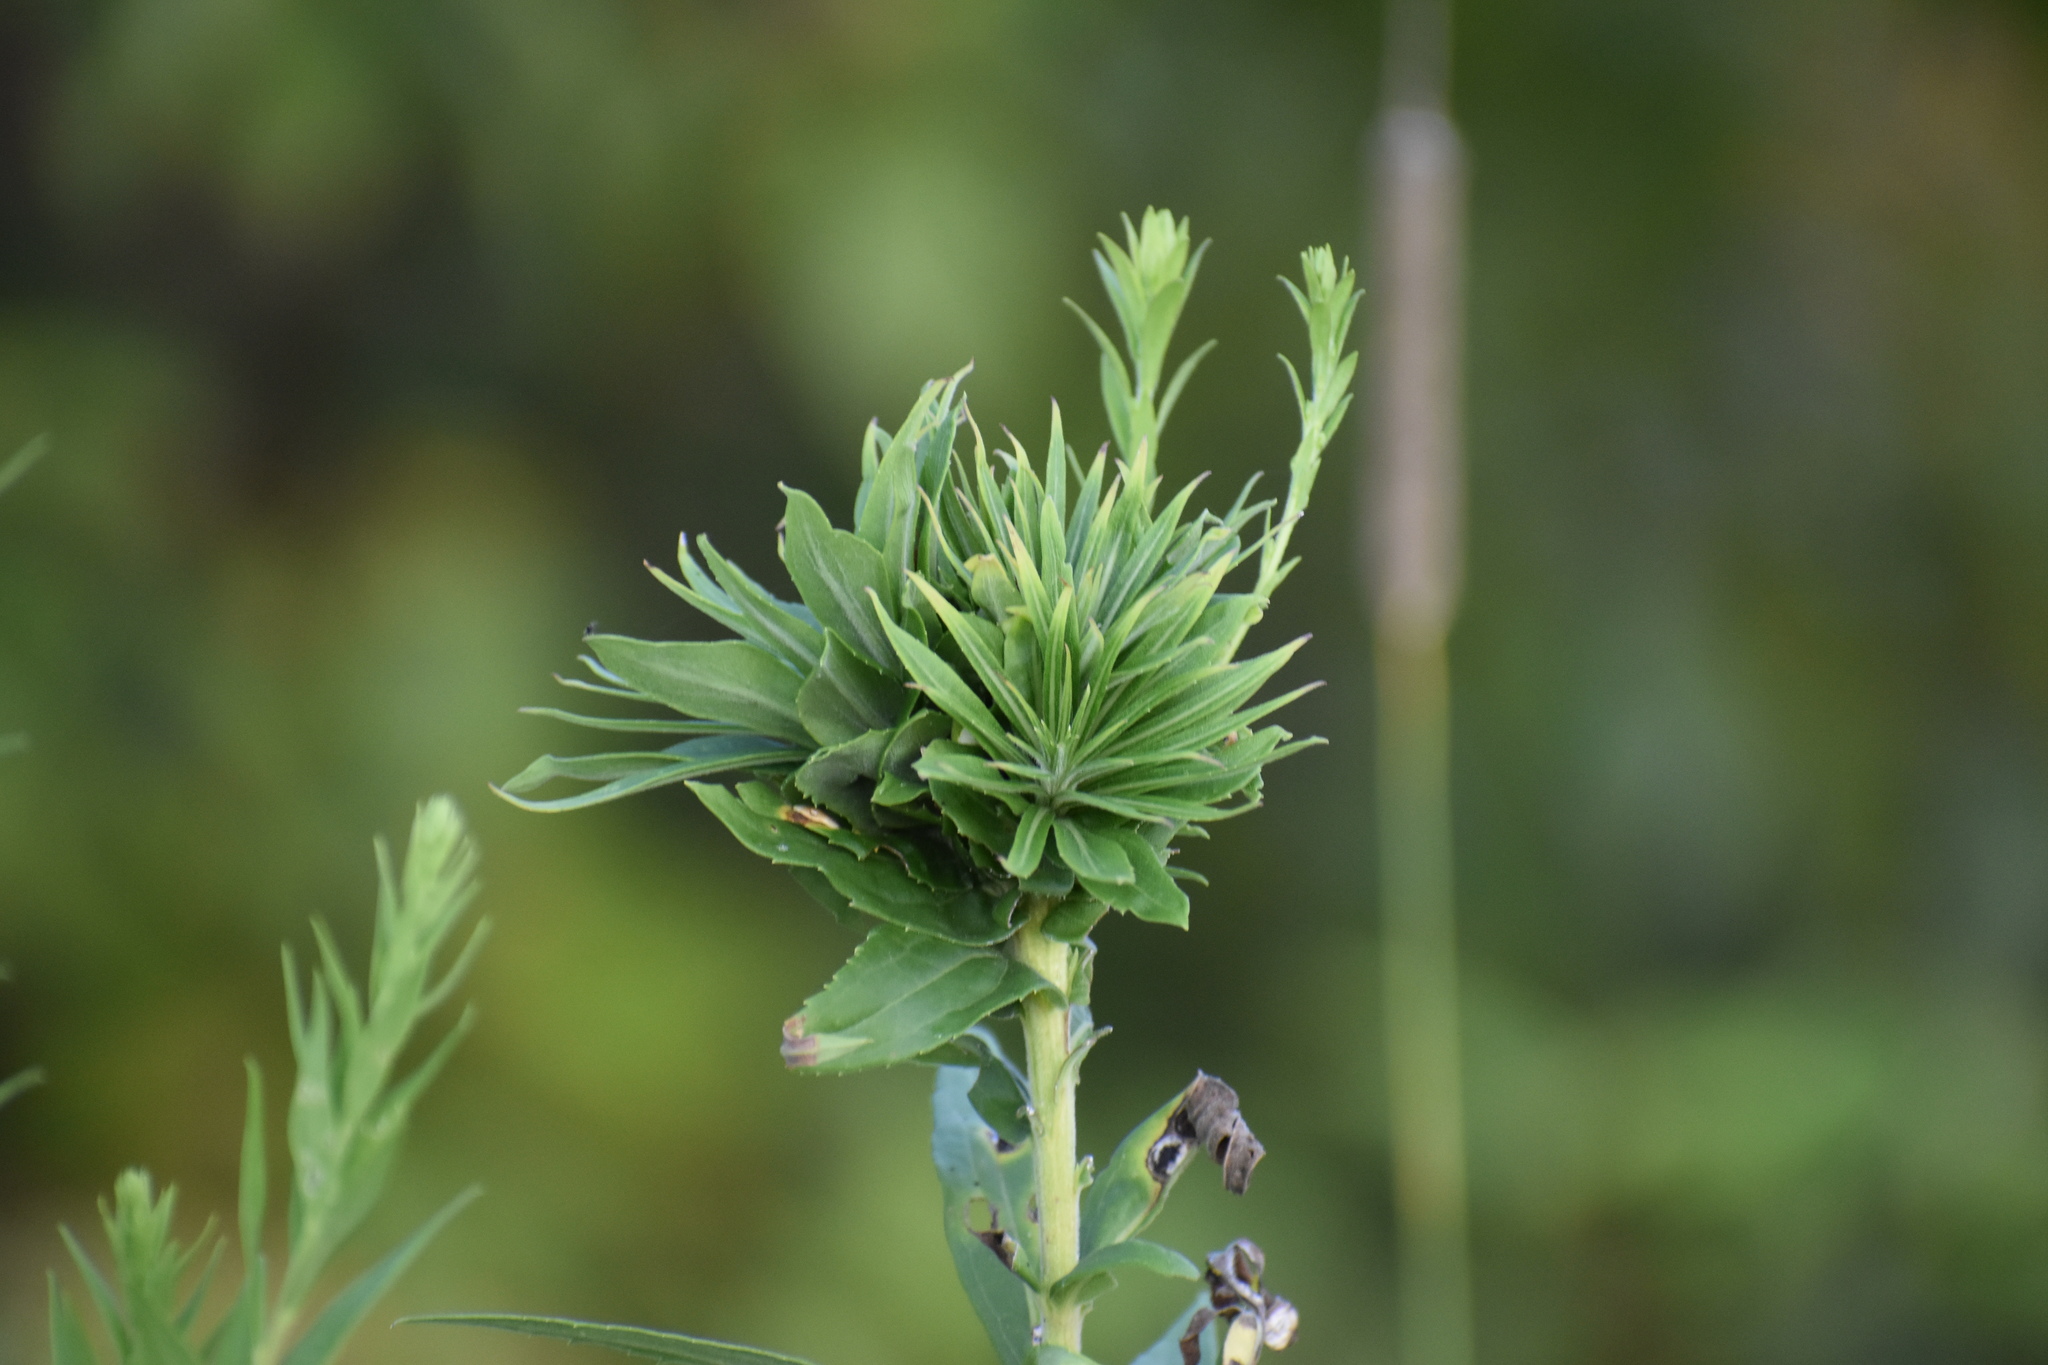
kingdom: Animalia
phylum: Arthropoda
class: Insecta
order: Diptera
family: Cecidomyiidae
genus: Rhopalomyia
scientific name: Rhopalomyia solidaginis
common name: Goldenrod bunch gall midge
